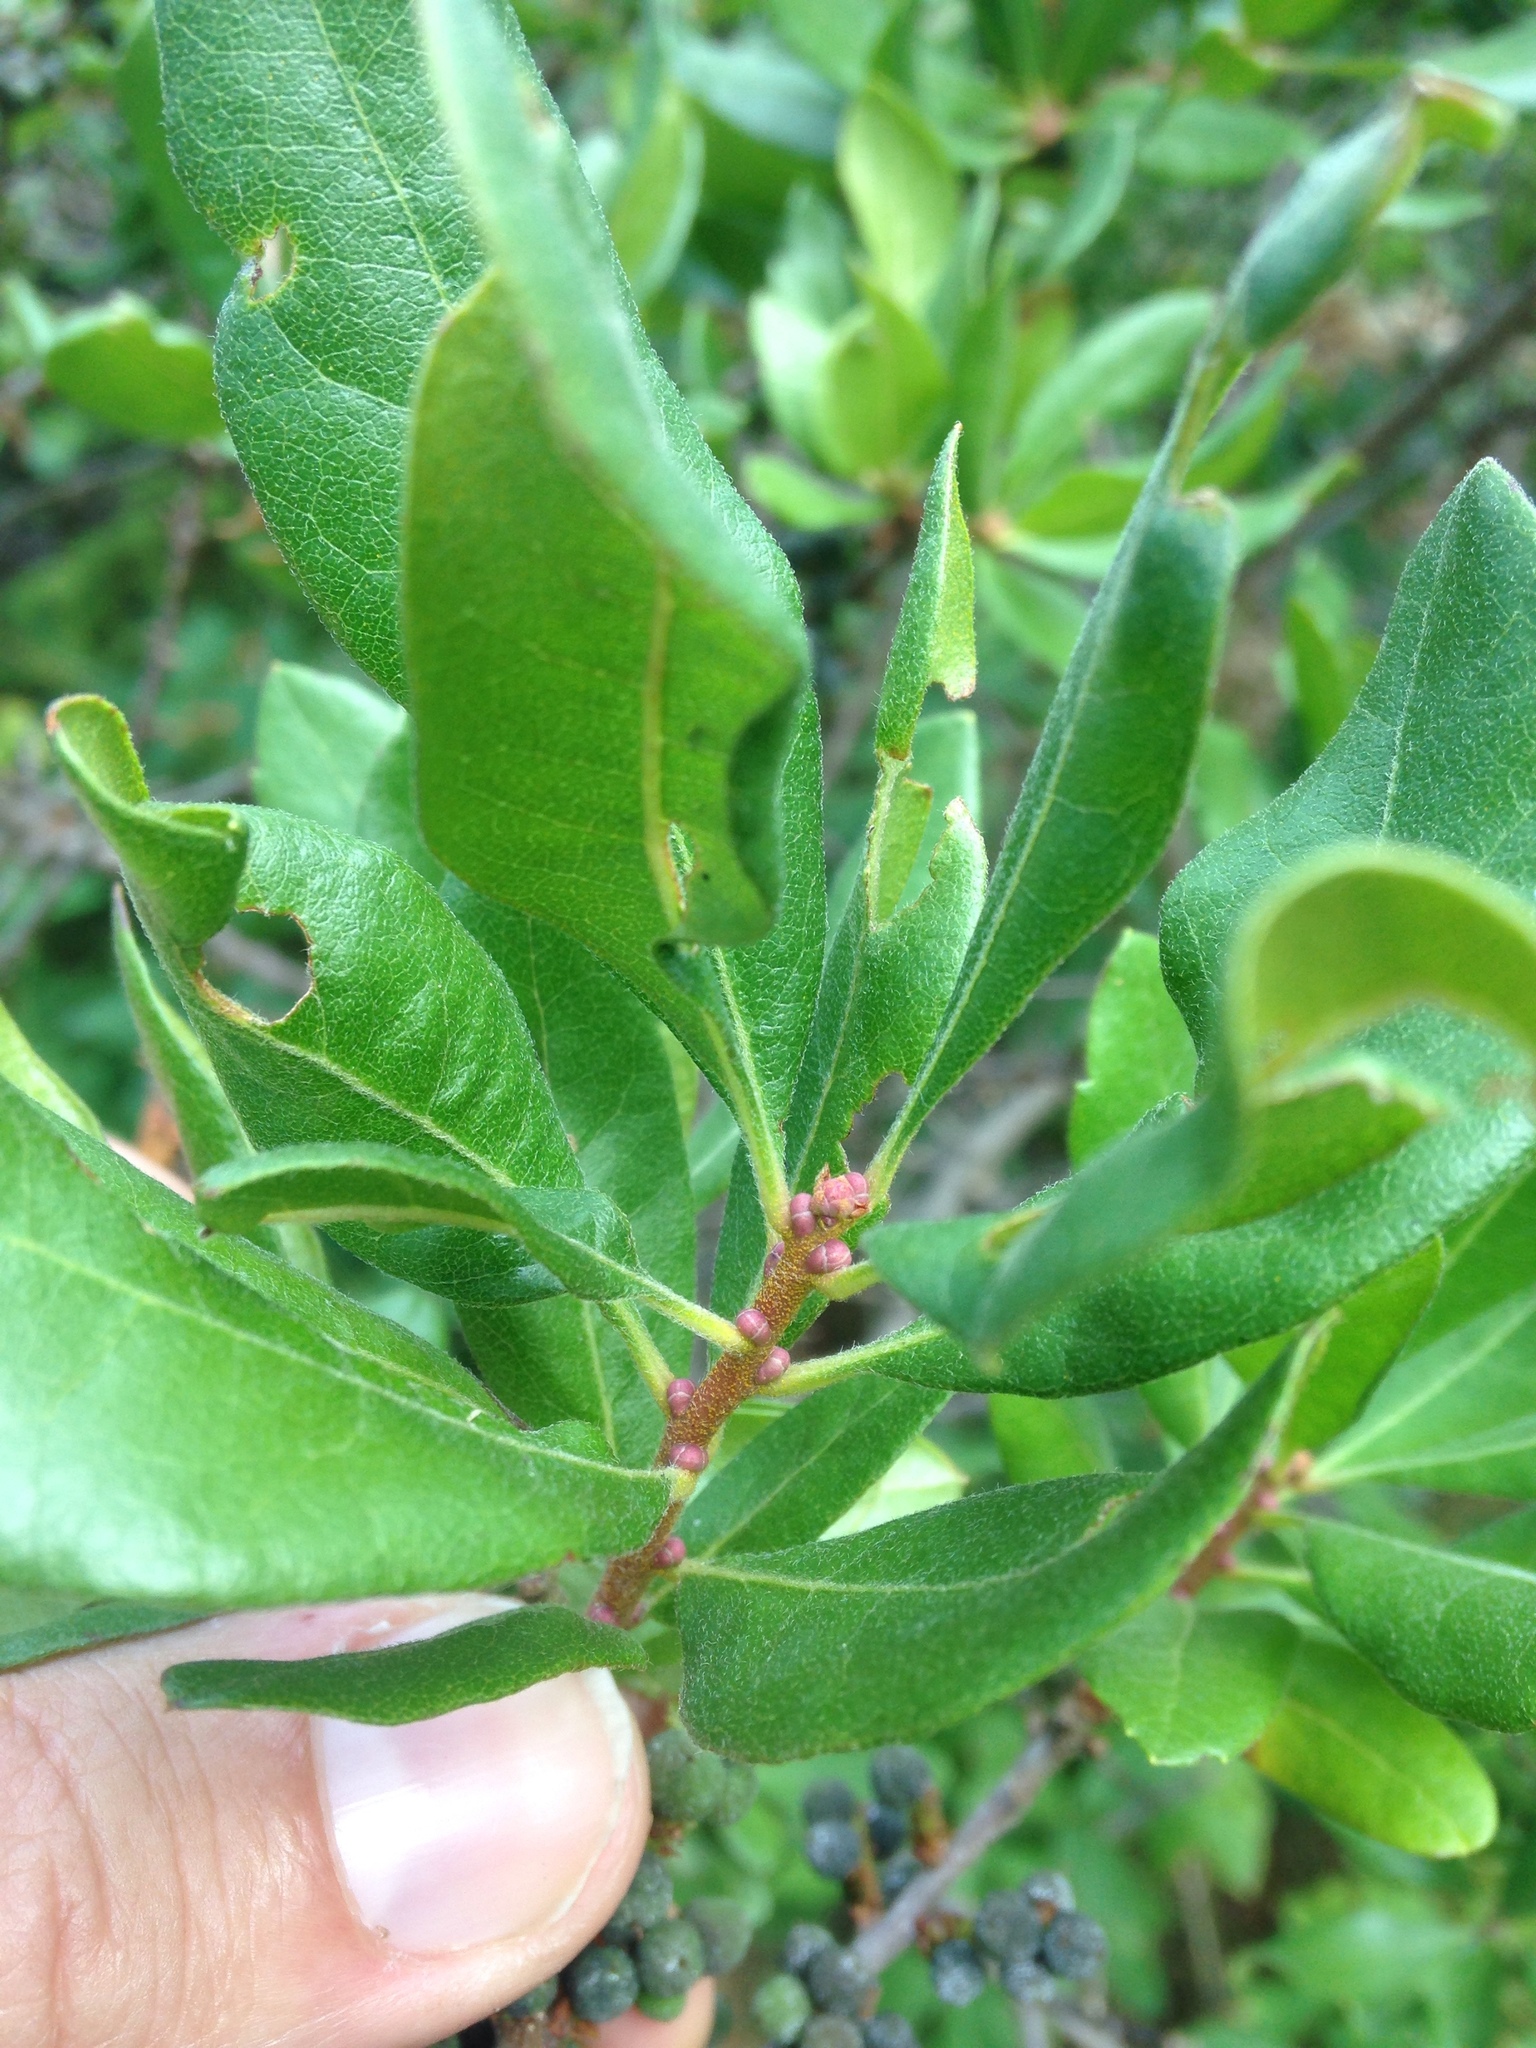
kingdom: Plantae
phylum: Tracheophyta
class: Magnoliopsida
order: Fagales
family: Myricaceae
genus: Morella
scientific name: Morella pensylvanica
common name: Northern bayberry
